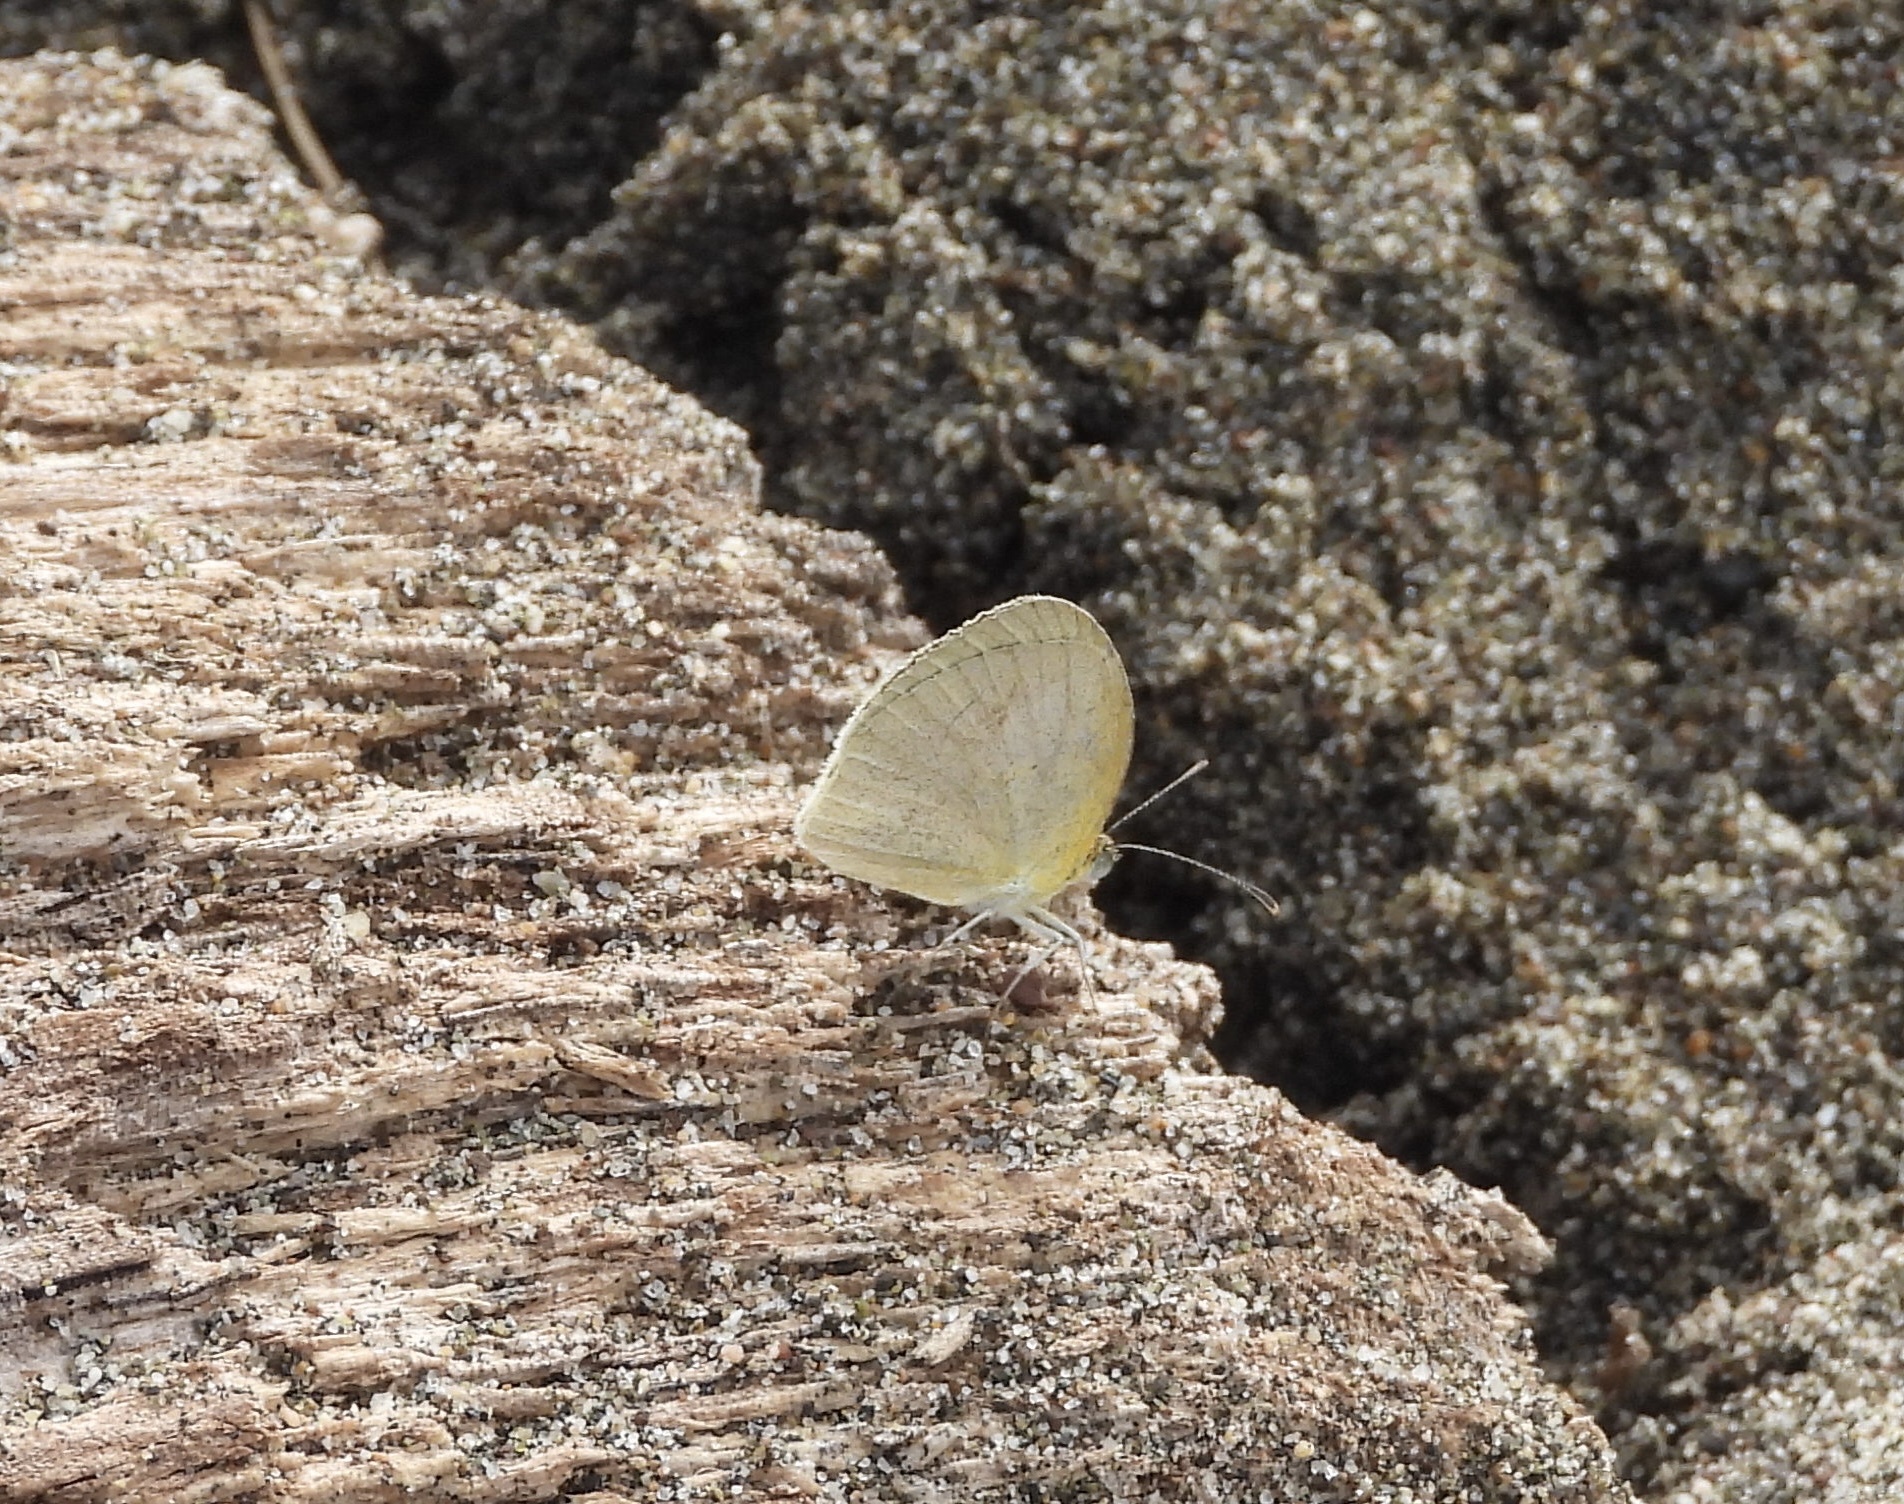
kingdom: Animalia
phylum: Arthropoda
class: Insecta
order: Lepidoptera
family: Pieridae
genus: Eurema
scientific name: Eurema daira
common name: Barred sulphur
